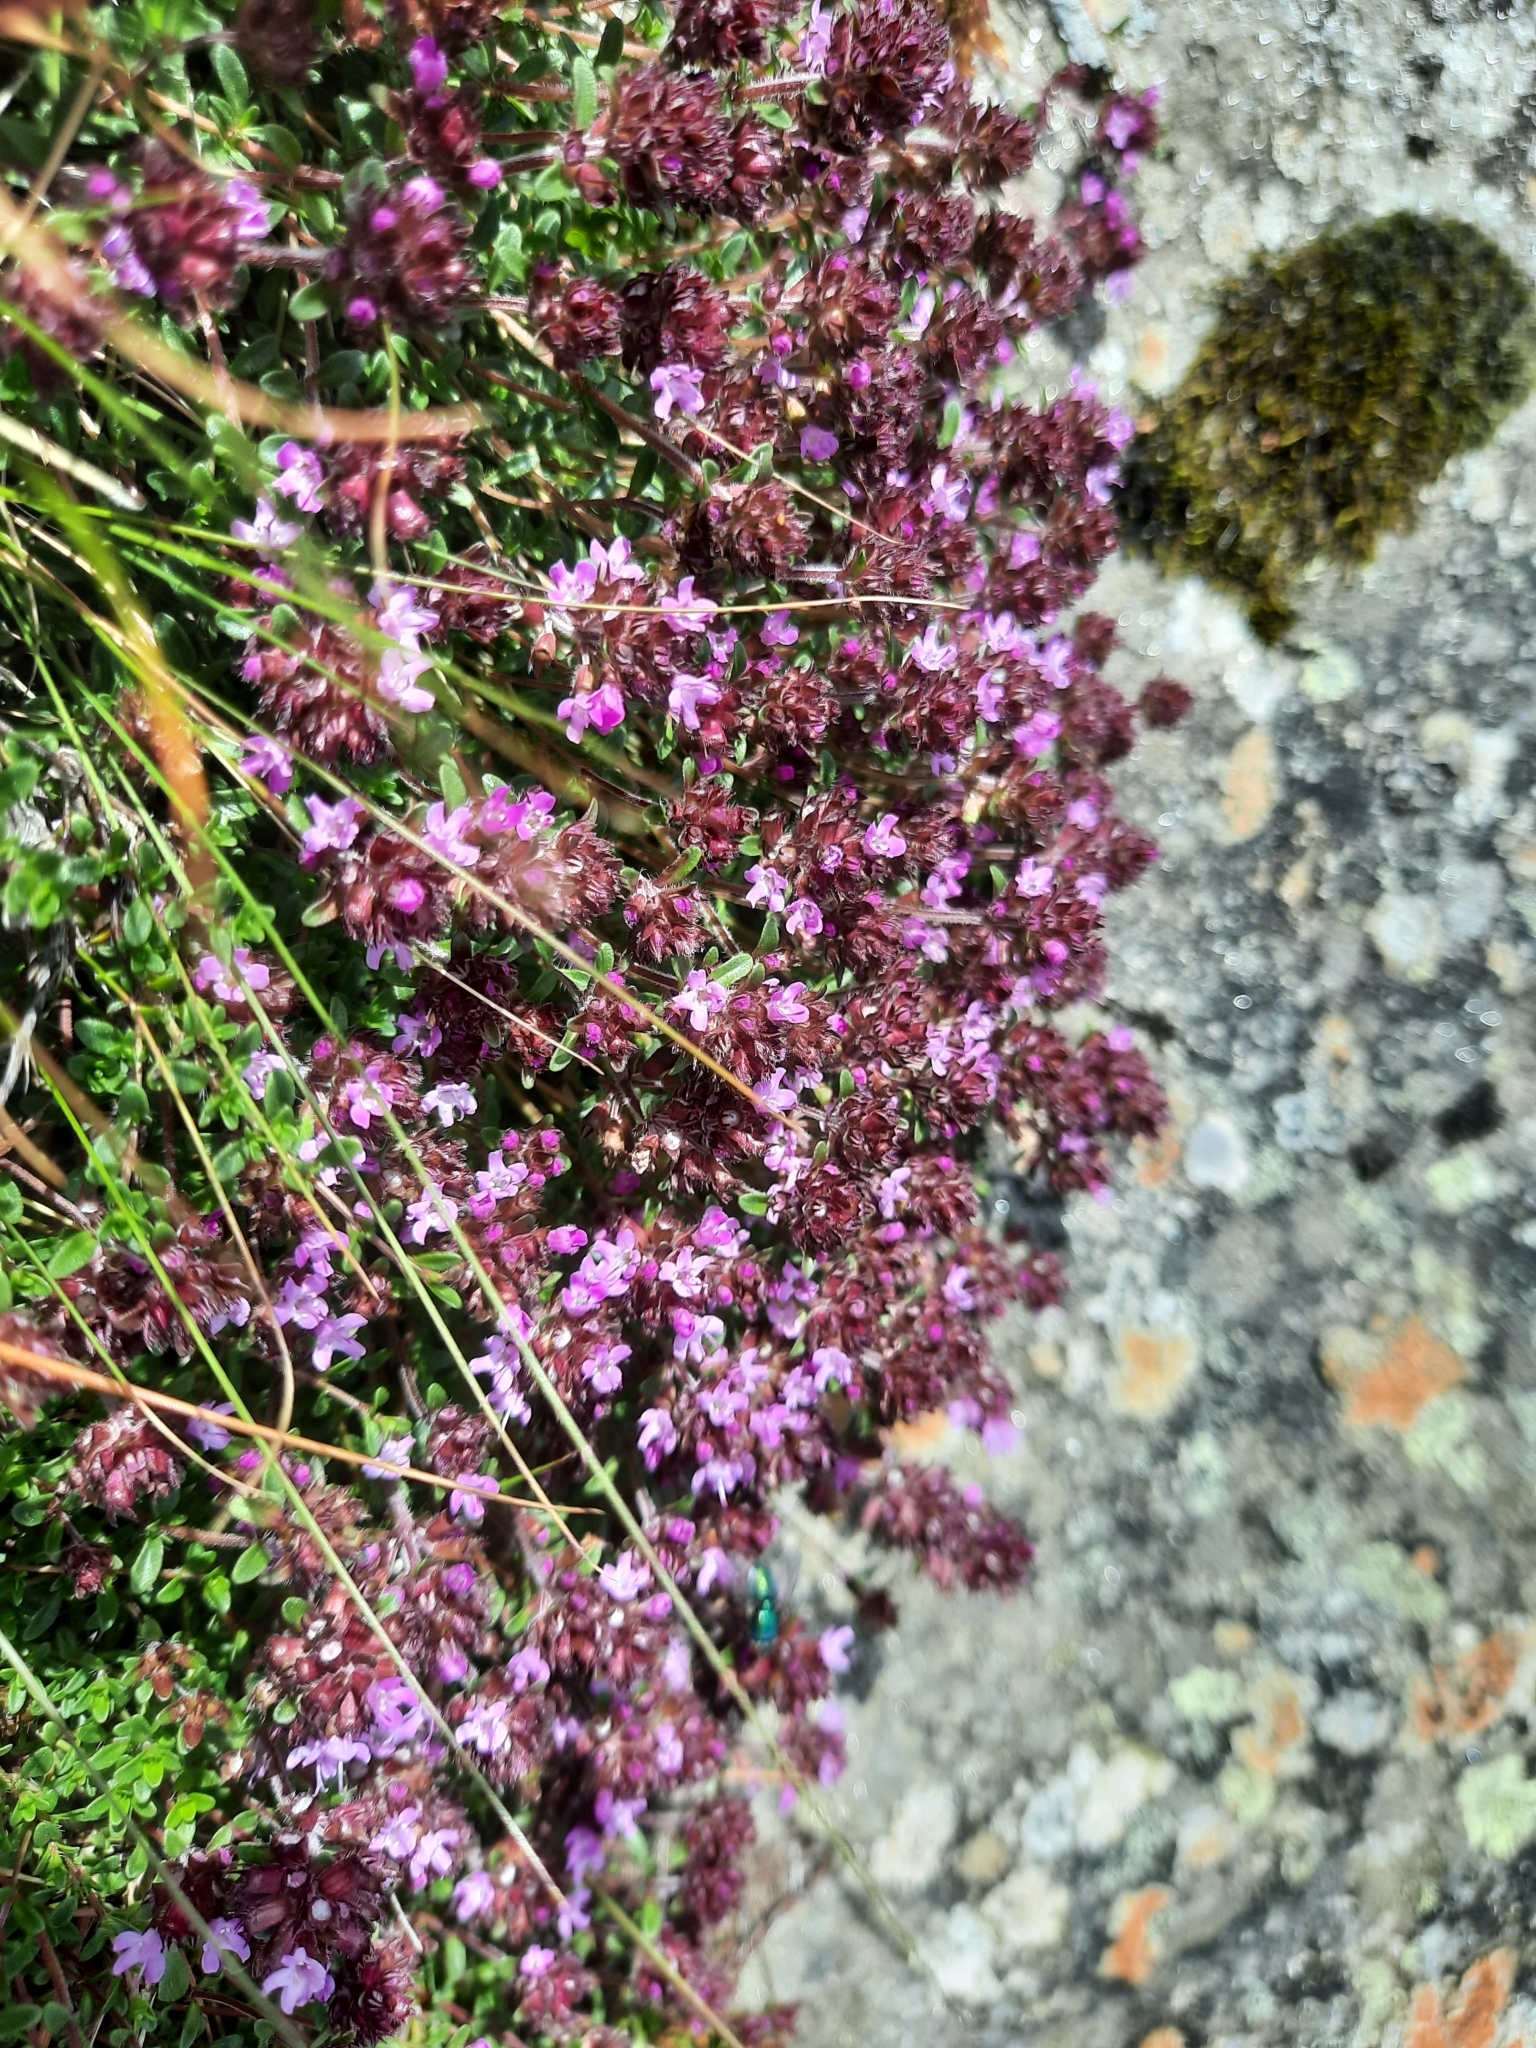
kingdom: Plantae
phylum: Tracheophyta
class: Magnoliopsida
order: Lamiales
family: Lamiaceae
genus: Thymus
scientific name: Thymus praecox
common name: Wild thyme
